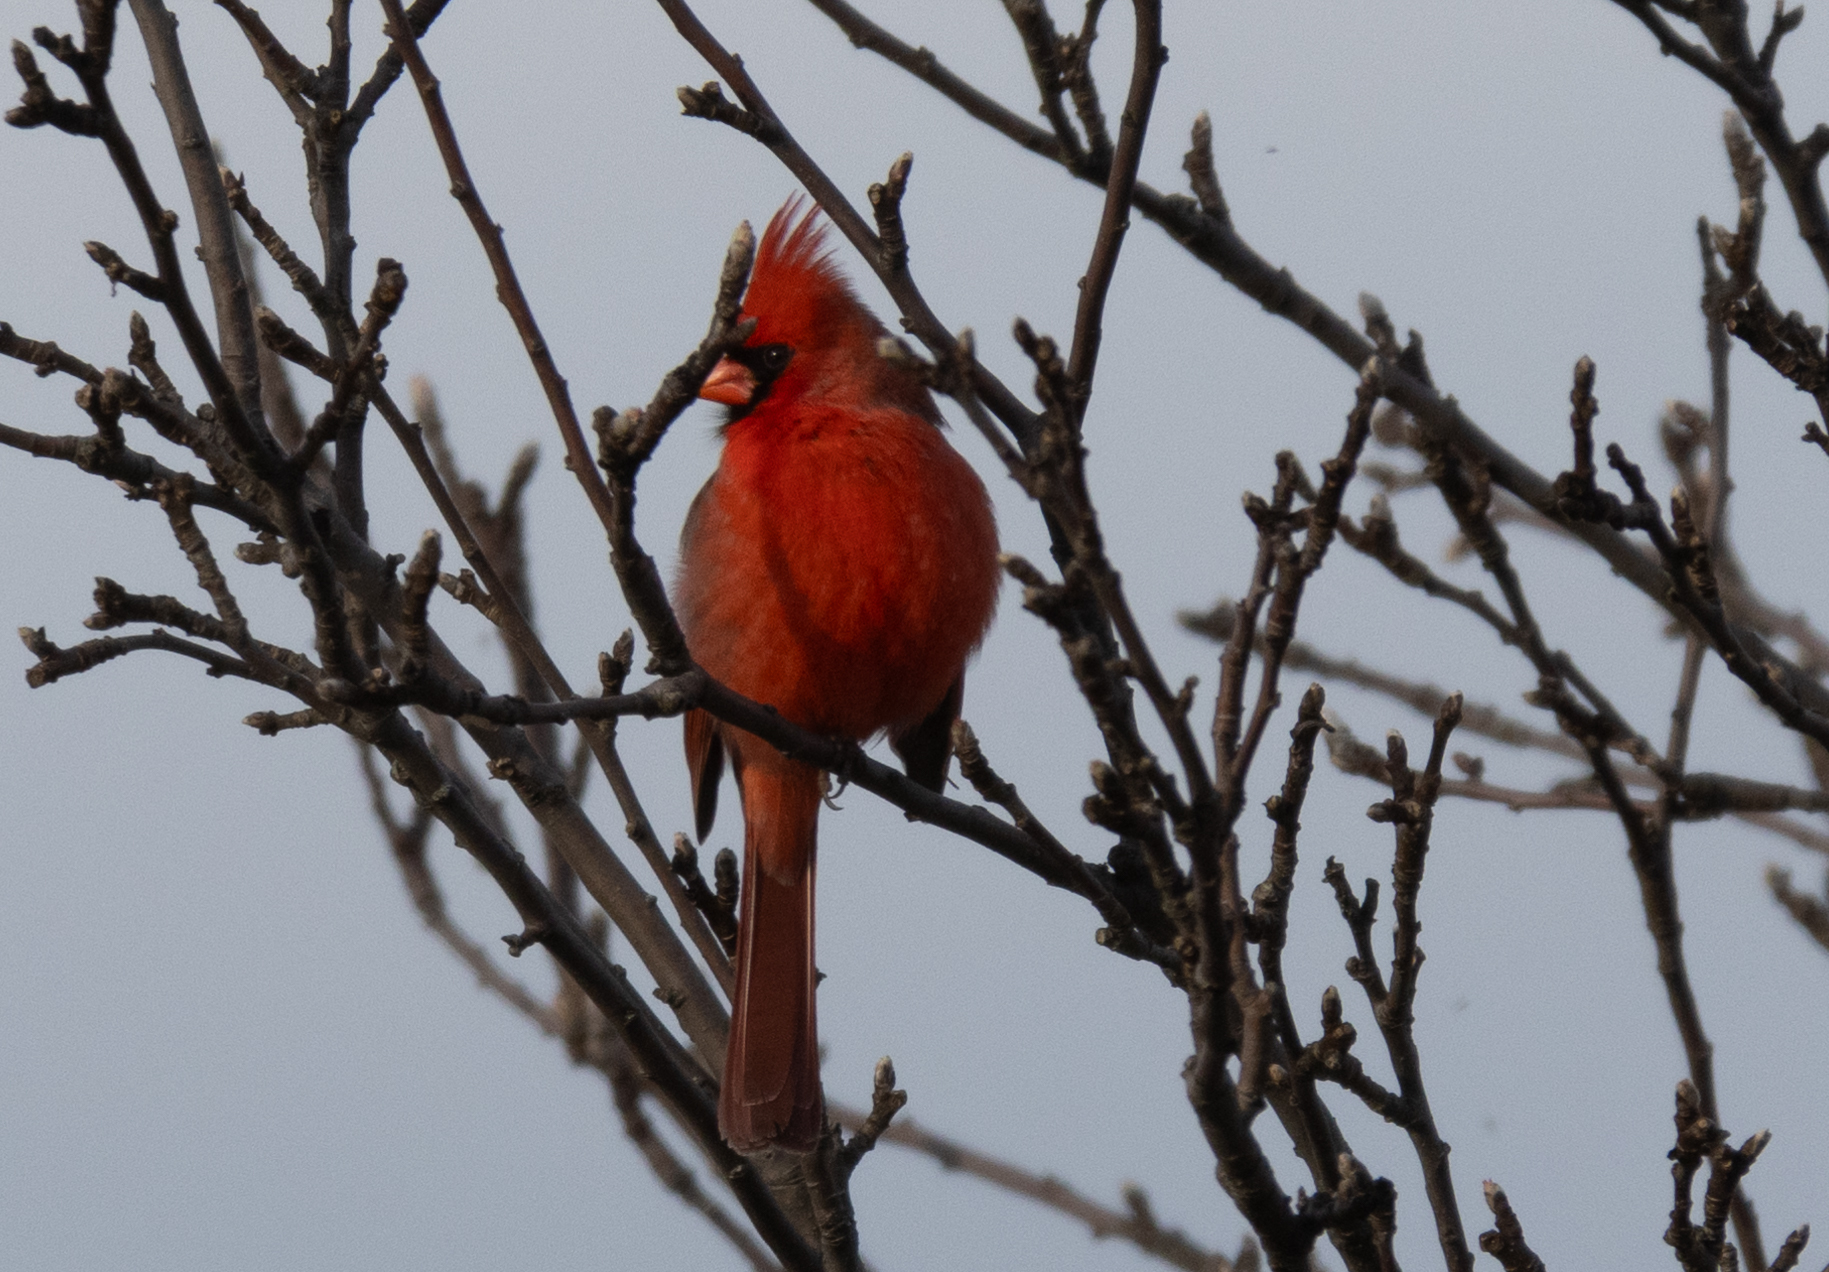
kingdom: Animalia
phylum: Chordata
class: Aves
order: Passeriformes
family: Cardinalidae
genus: Cardinalis
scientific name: Cardinalis cardinalis
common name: Northern cardinal
